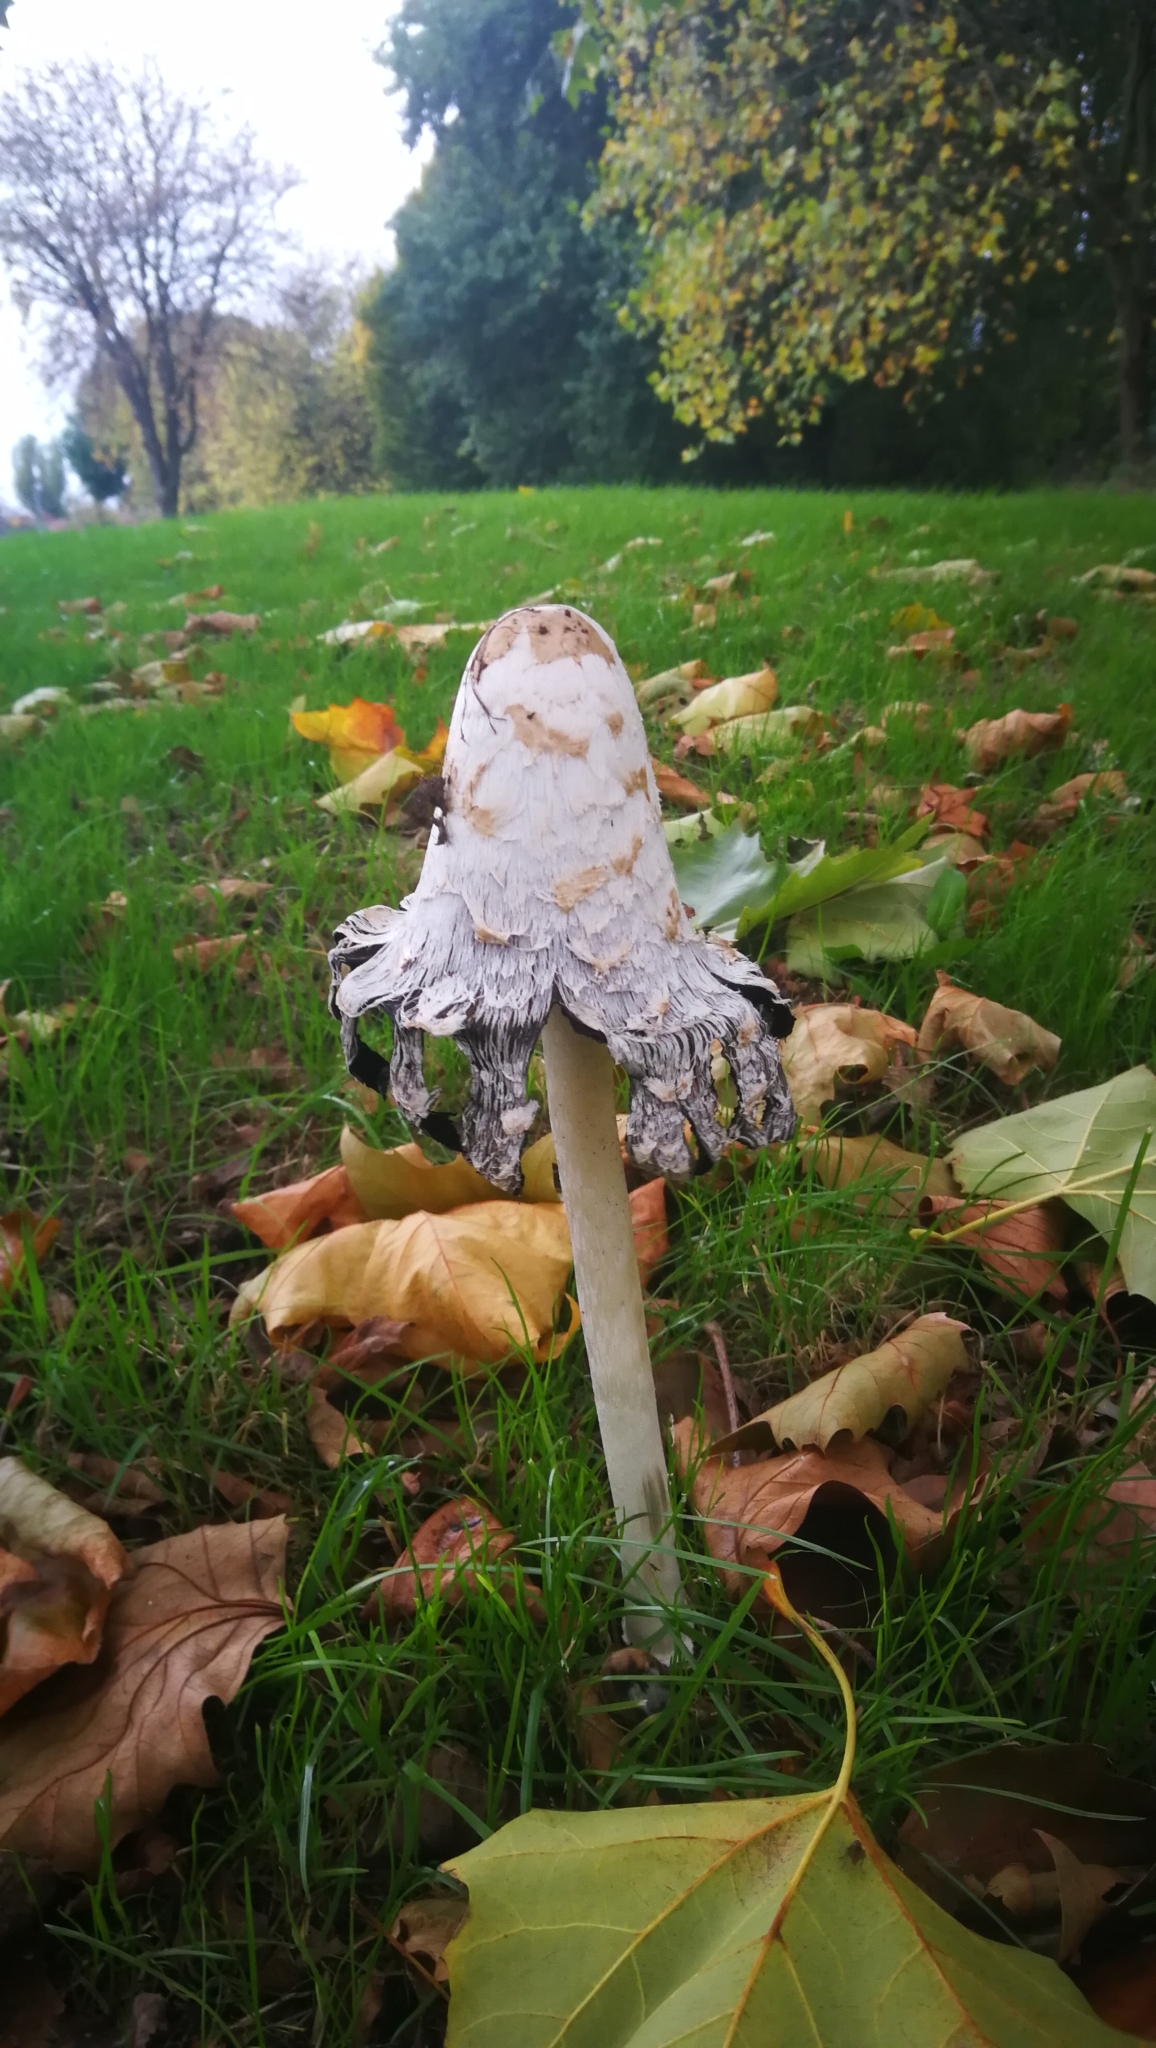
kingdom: Fungi
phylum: Basidiomycota
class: Agaricomycetes
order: Agaricales
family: Agaricaceae
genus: Coprinus
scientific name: Coprinus comatus
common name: Lawyer's wig
